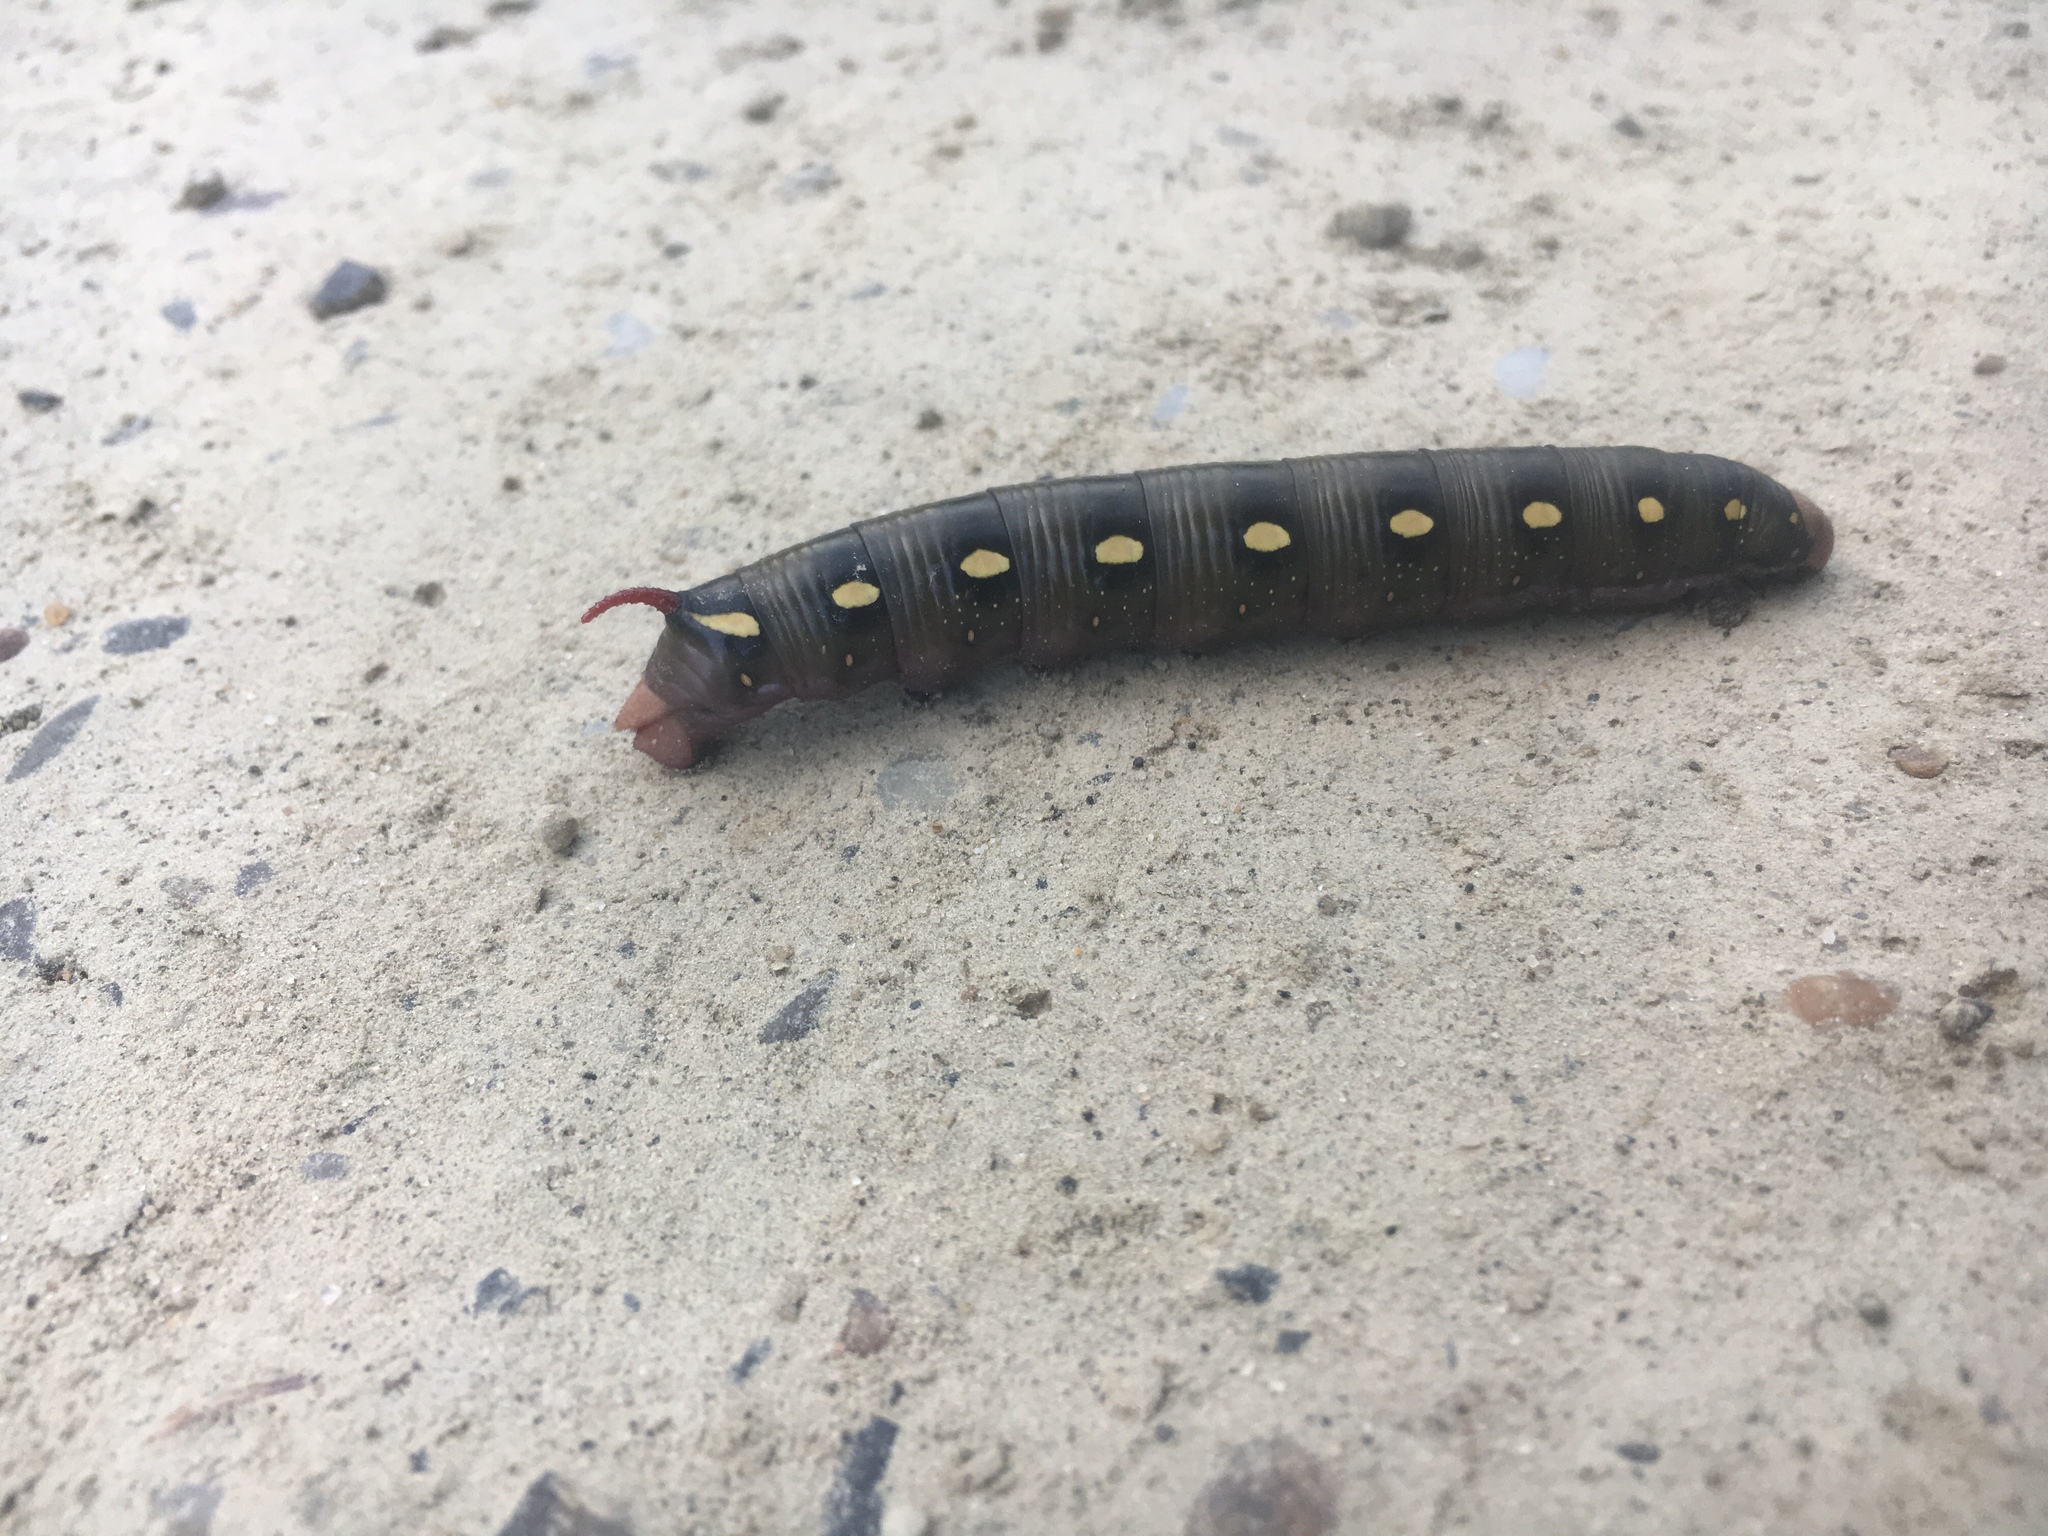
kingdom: Animalia
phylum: Arthropoda
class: Insecta
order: Lepidoptera
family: Sphingidae
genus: Hyles
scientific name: Hyles gallii
